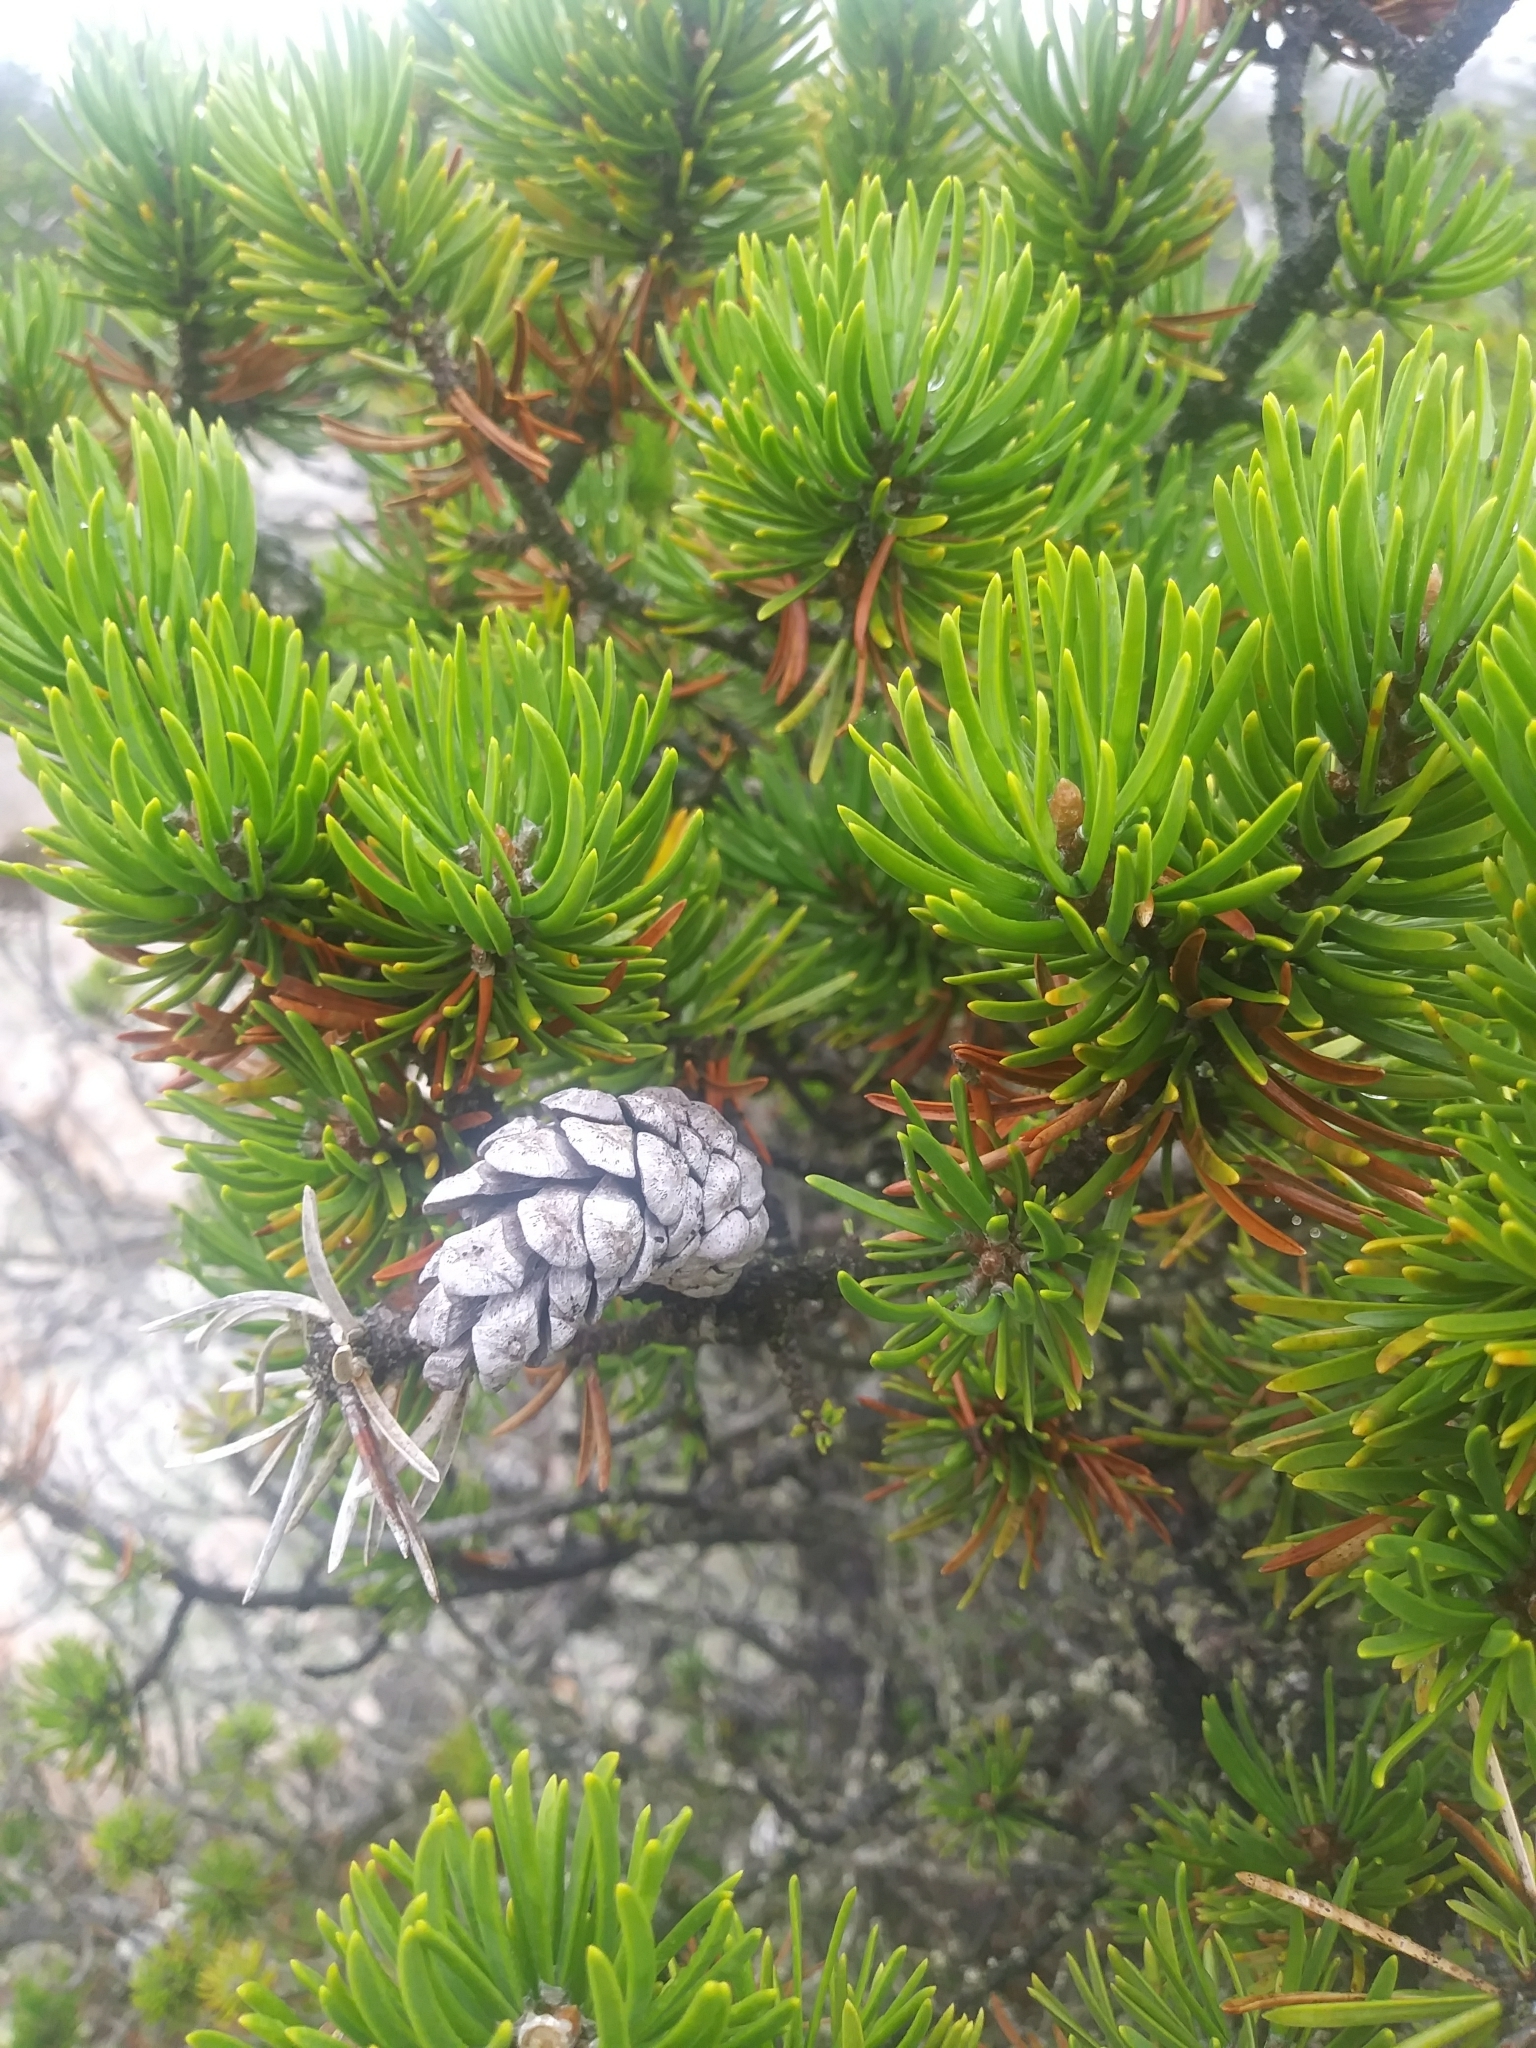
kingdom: Plantae
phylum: Tracheophyta
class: Pinopsida
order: Pinales
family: Pinaceae
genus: Pinus
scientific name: Pinus banksiana
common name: Jack pine
